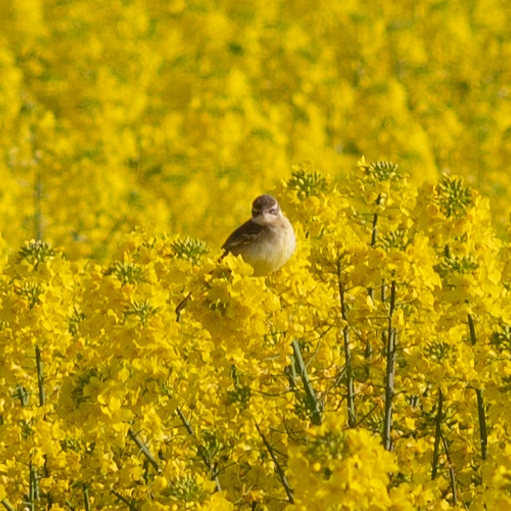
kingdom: Animalia
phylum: Chordata
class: Aves
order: Passeriformes
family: Motacillidae
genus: Motacilla
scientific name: Motacilla flava
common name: Western yellow wagtail
